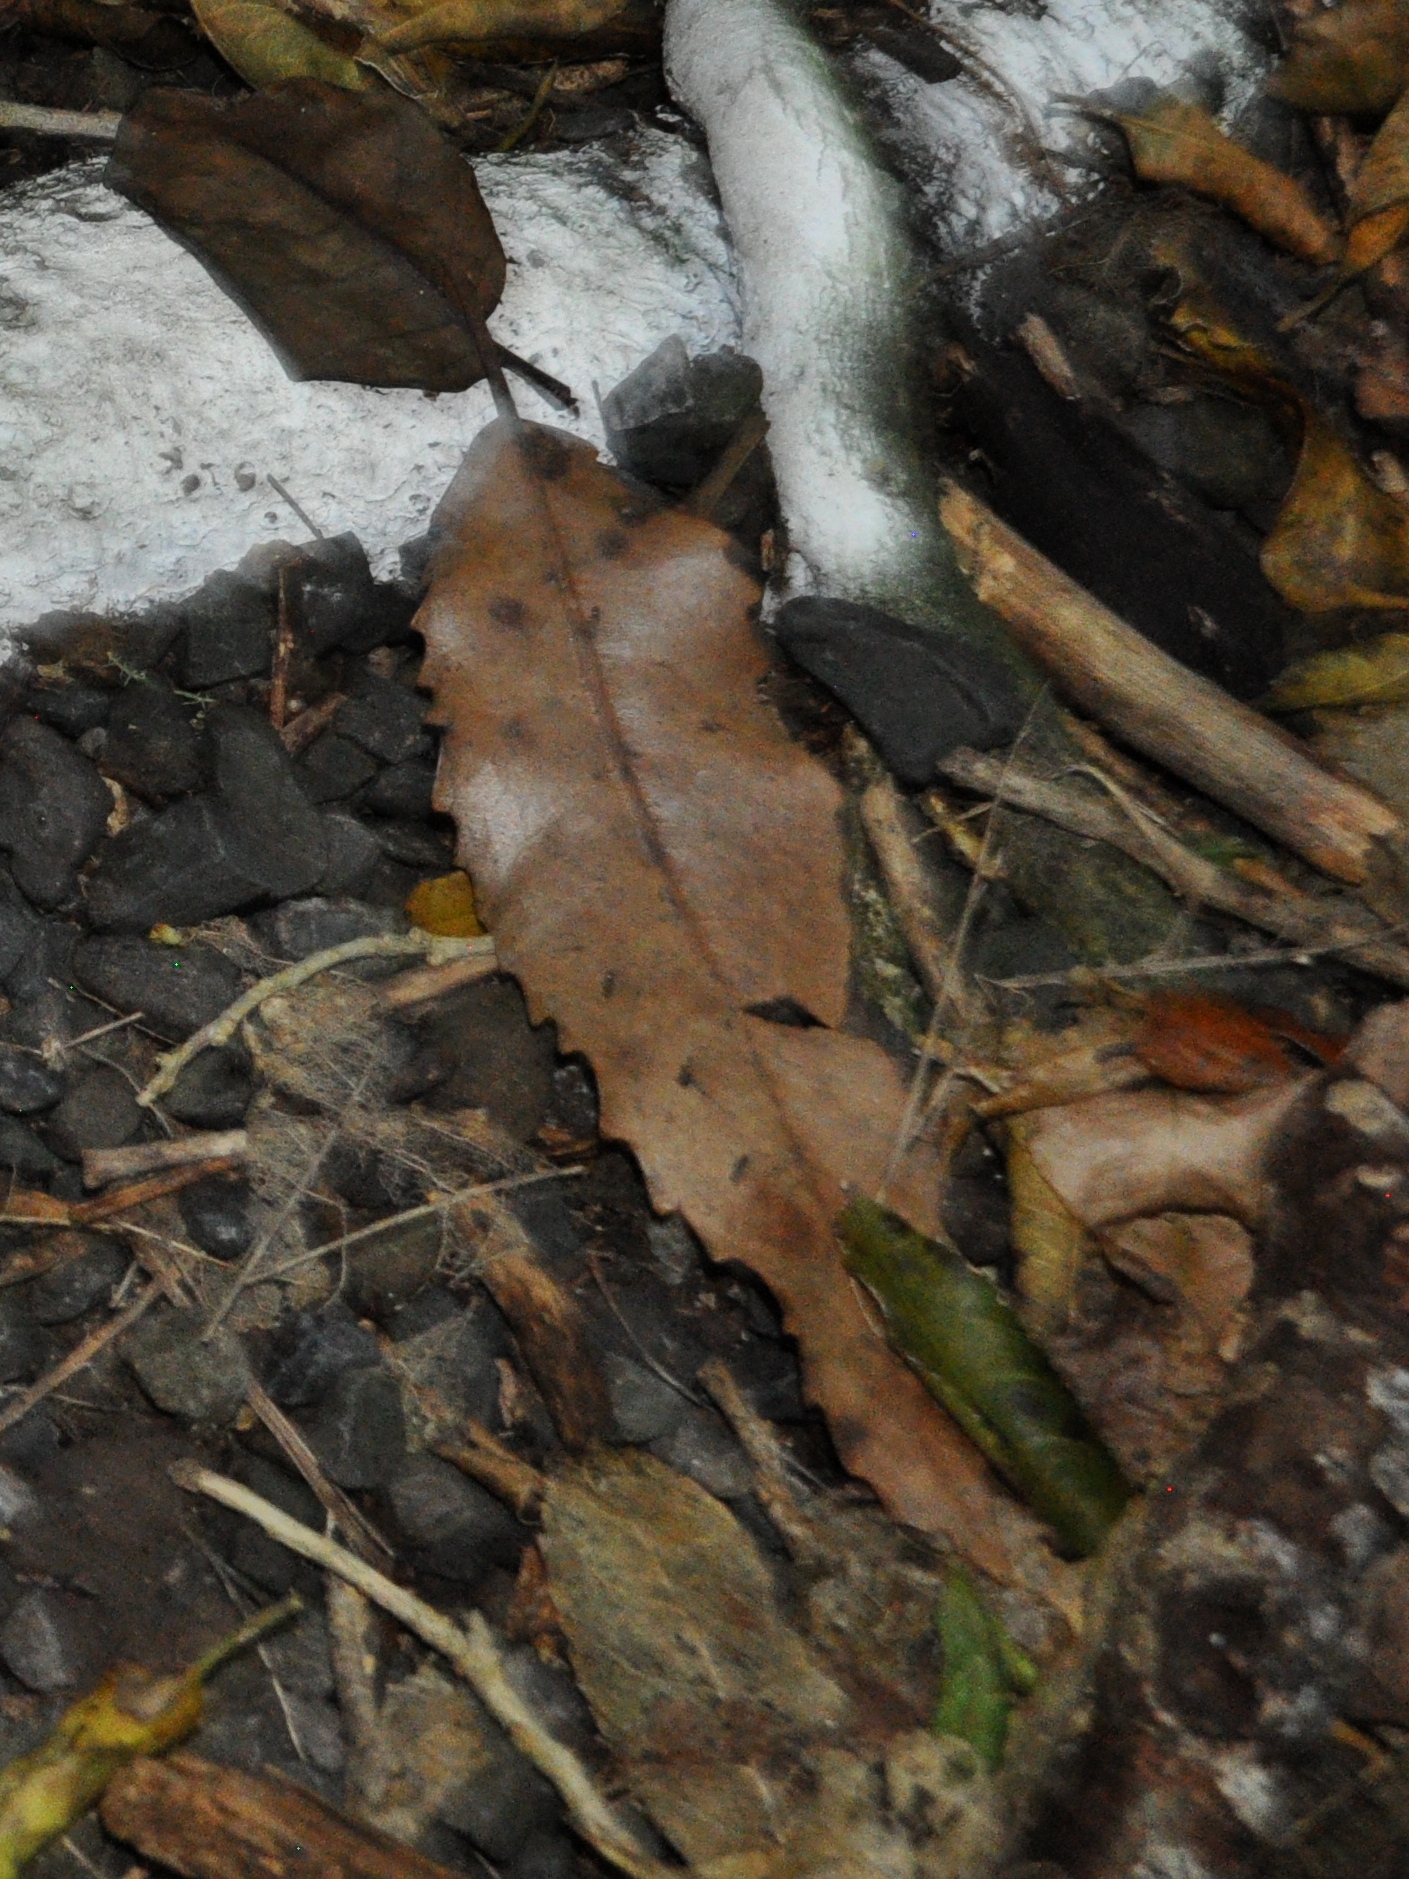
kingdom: Plantae
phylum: Tracheophyta
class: Magnoliopsida
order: Proteales
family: Proteaceae
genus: Knightia
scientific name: Knightia excelsa
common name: New zealand-honeysuckle
